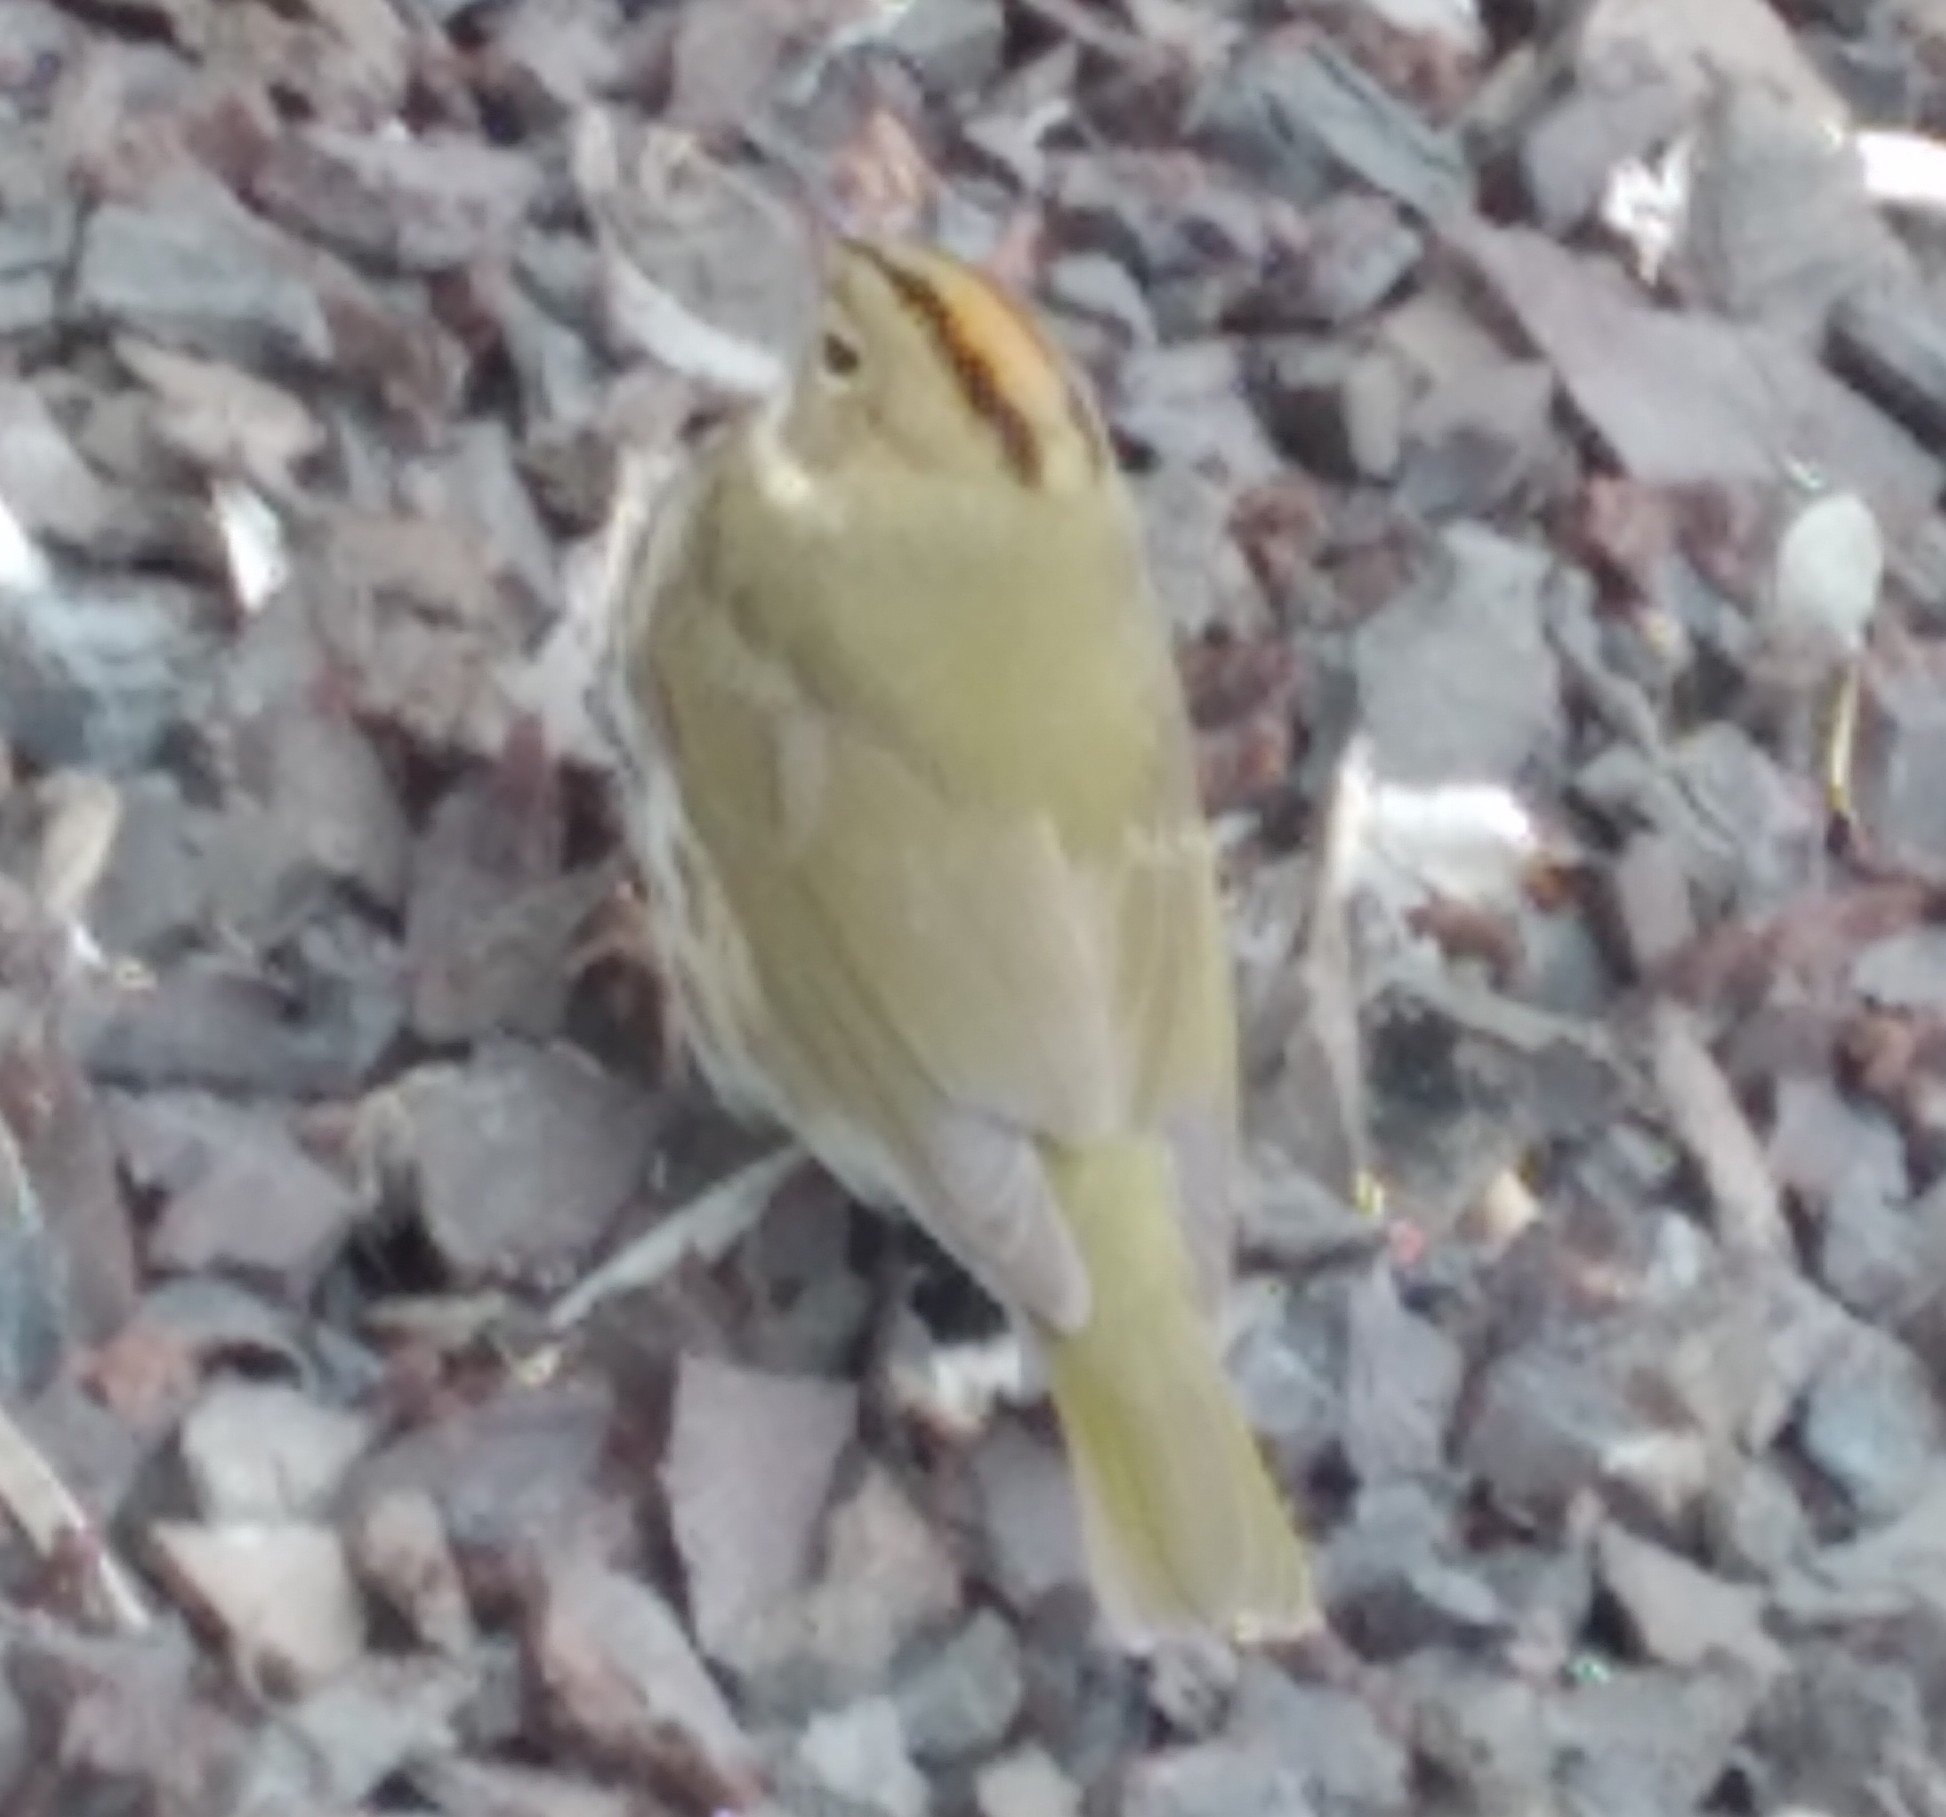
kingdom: Animalia
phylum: Chordata
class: Aves
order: Passeriformes
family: Parulidae
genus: Seiurus
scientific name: Seiurus aurocapilla
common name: Ovenbird
